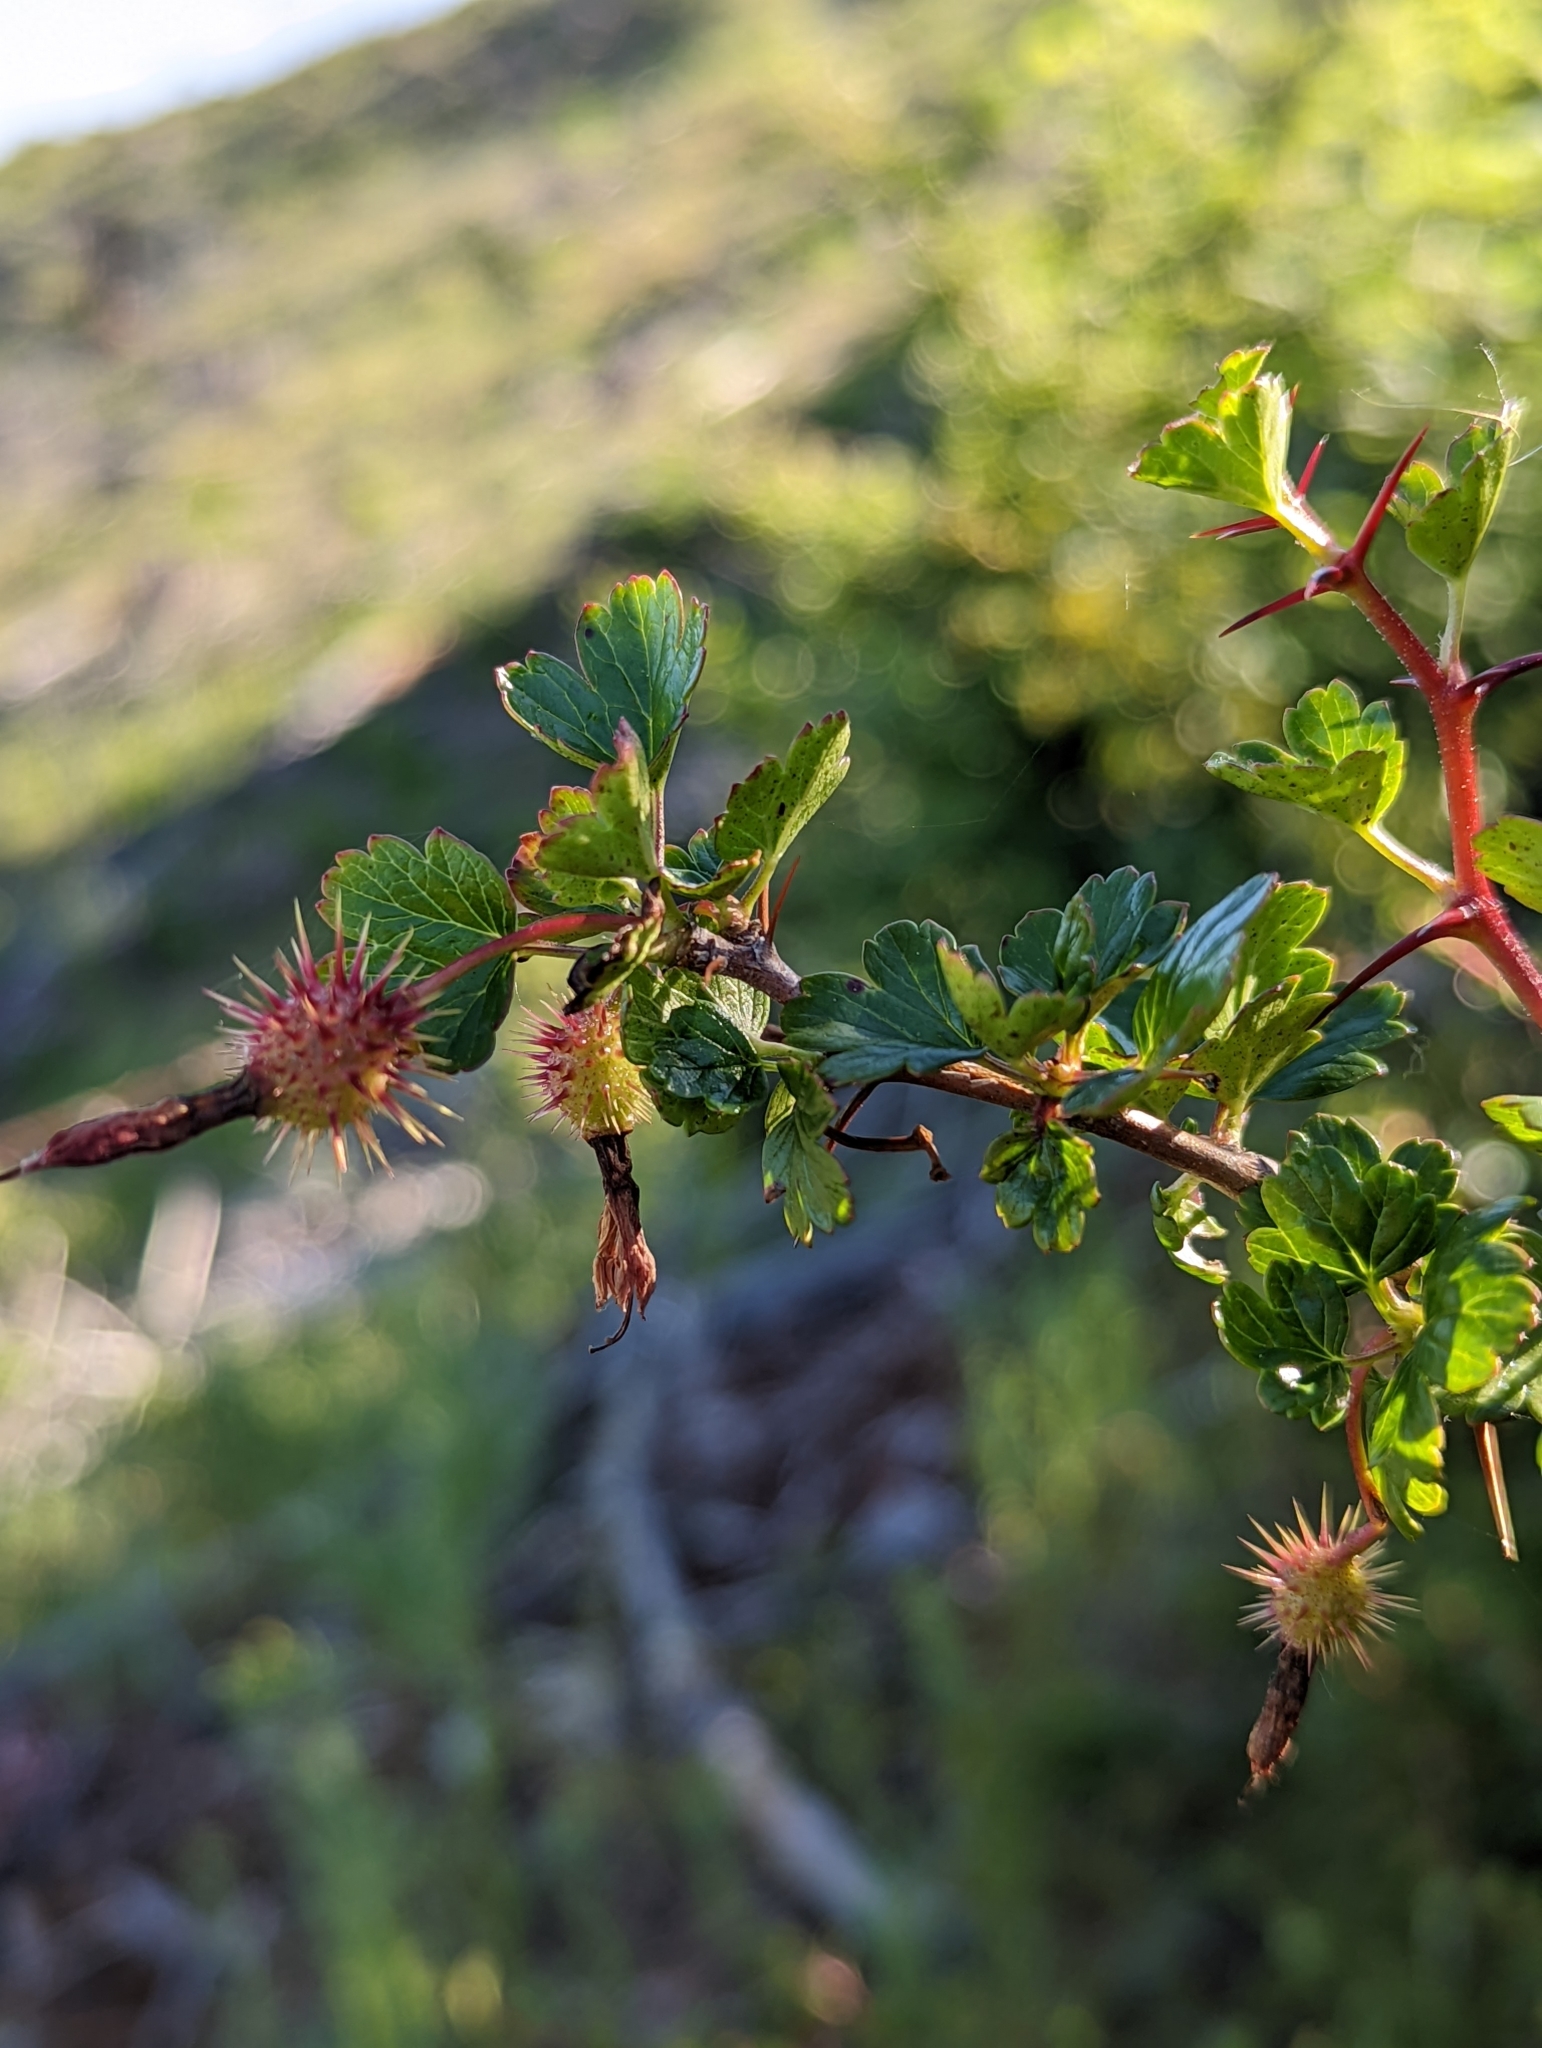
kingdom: Plantae
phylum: Tracheophyta
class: Magnoliopsida
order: Saxifragales
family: Grossulariaceae
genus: Ribes
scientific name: Ribes roezlii
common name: Sierra gooseberry
